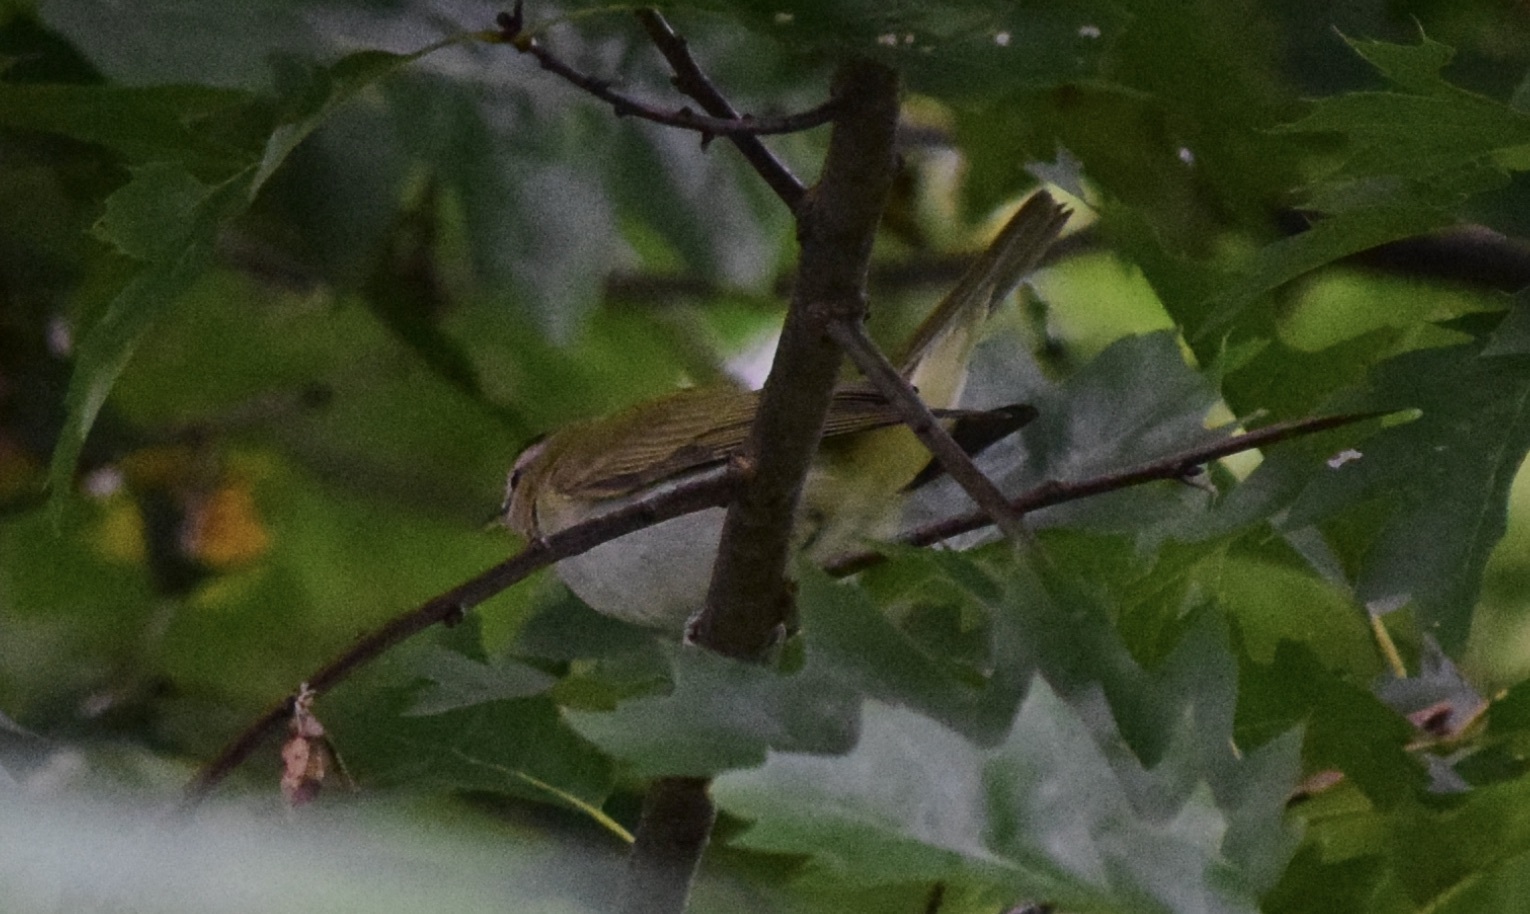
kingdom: Animalia
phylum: Chordata
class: Aves
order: Passeriformes
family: Vireonidae
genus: Vireo
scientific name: Vireo olivaceus
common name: Red-eyed vireo
